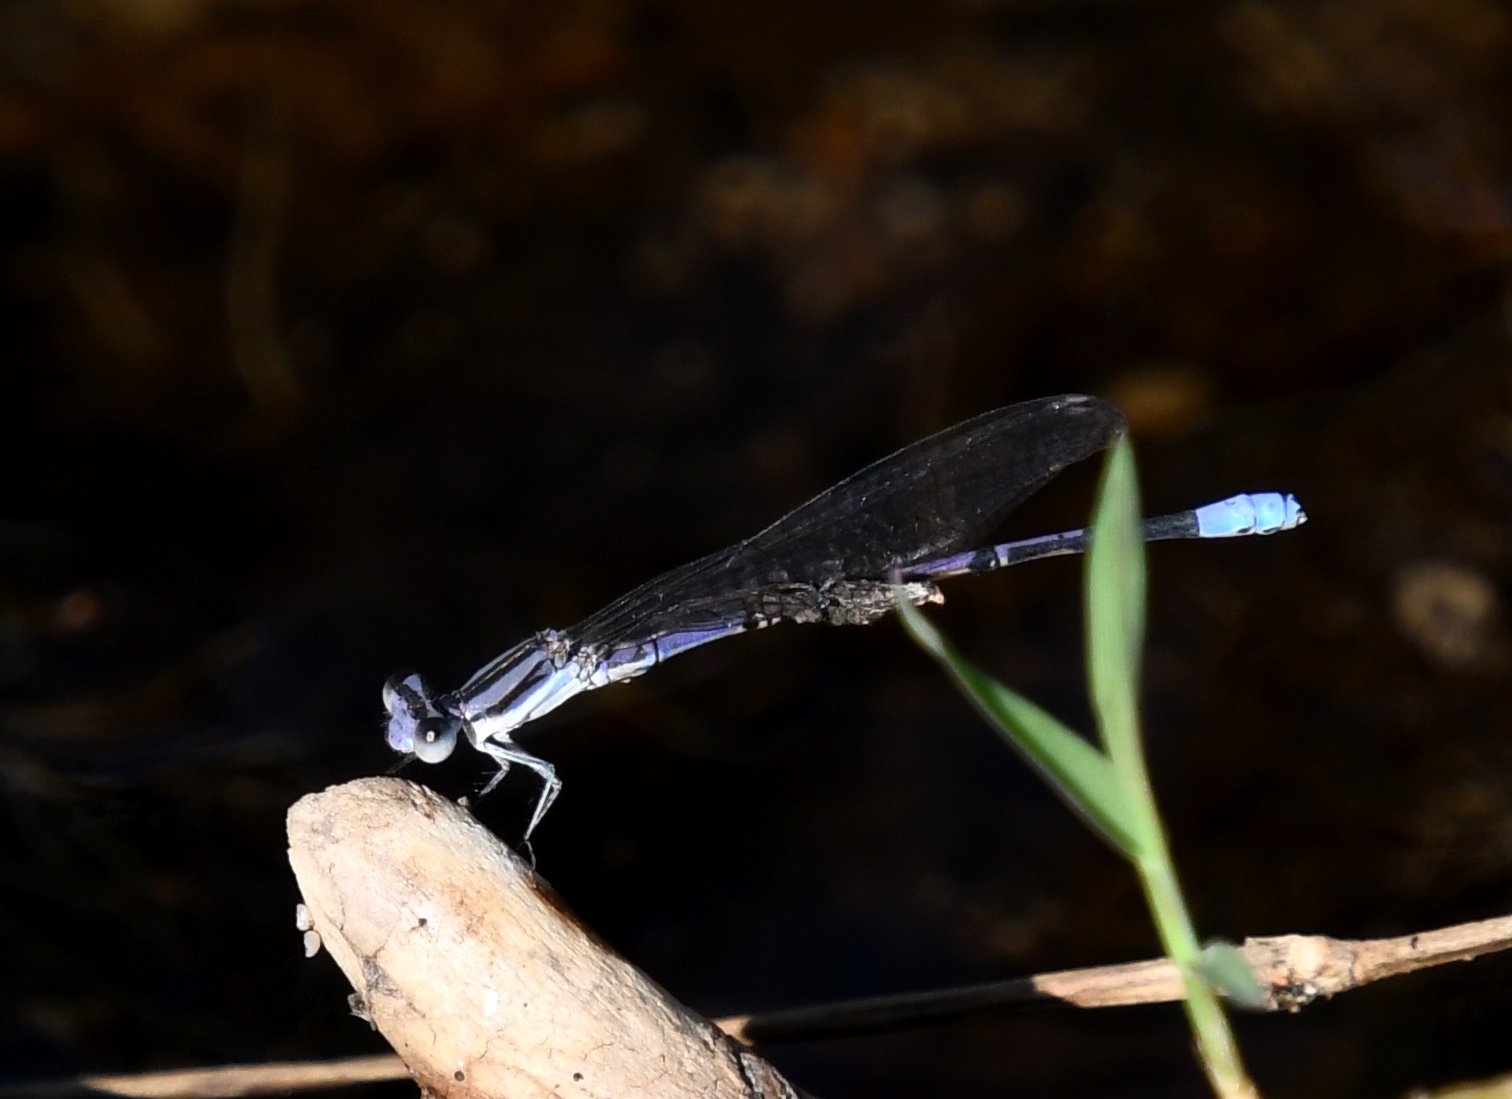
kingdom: Animalia
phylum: Arthropoda
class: Insecta
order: Odonata
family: Coenagrionidae
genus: Argia
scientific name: Argia hinei
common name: Lavender dancer
